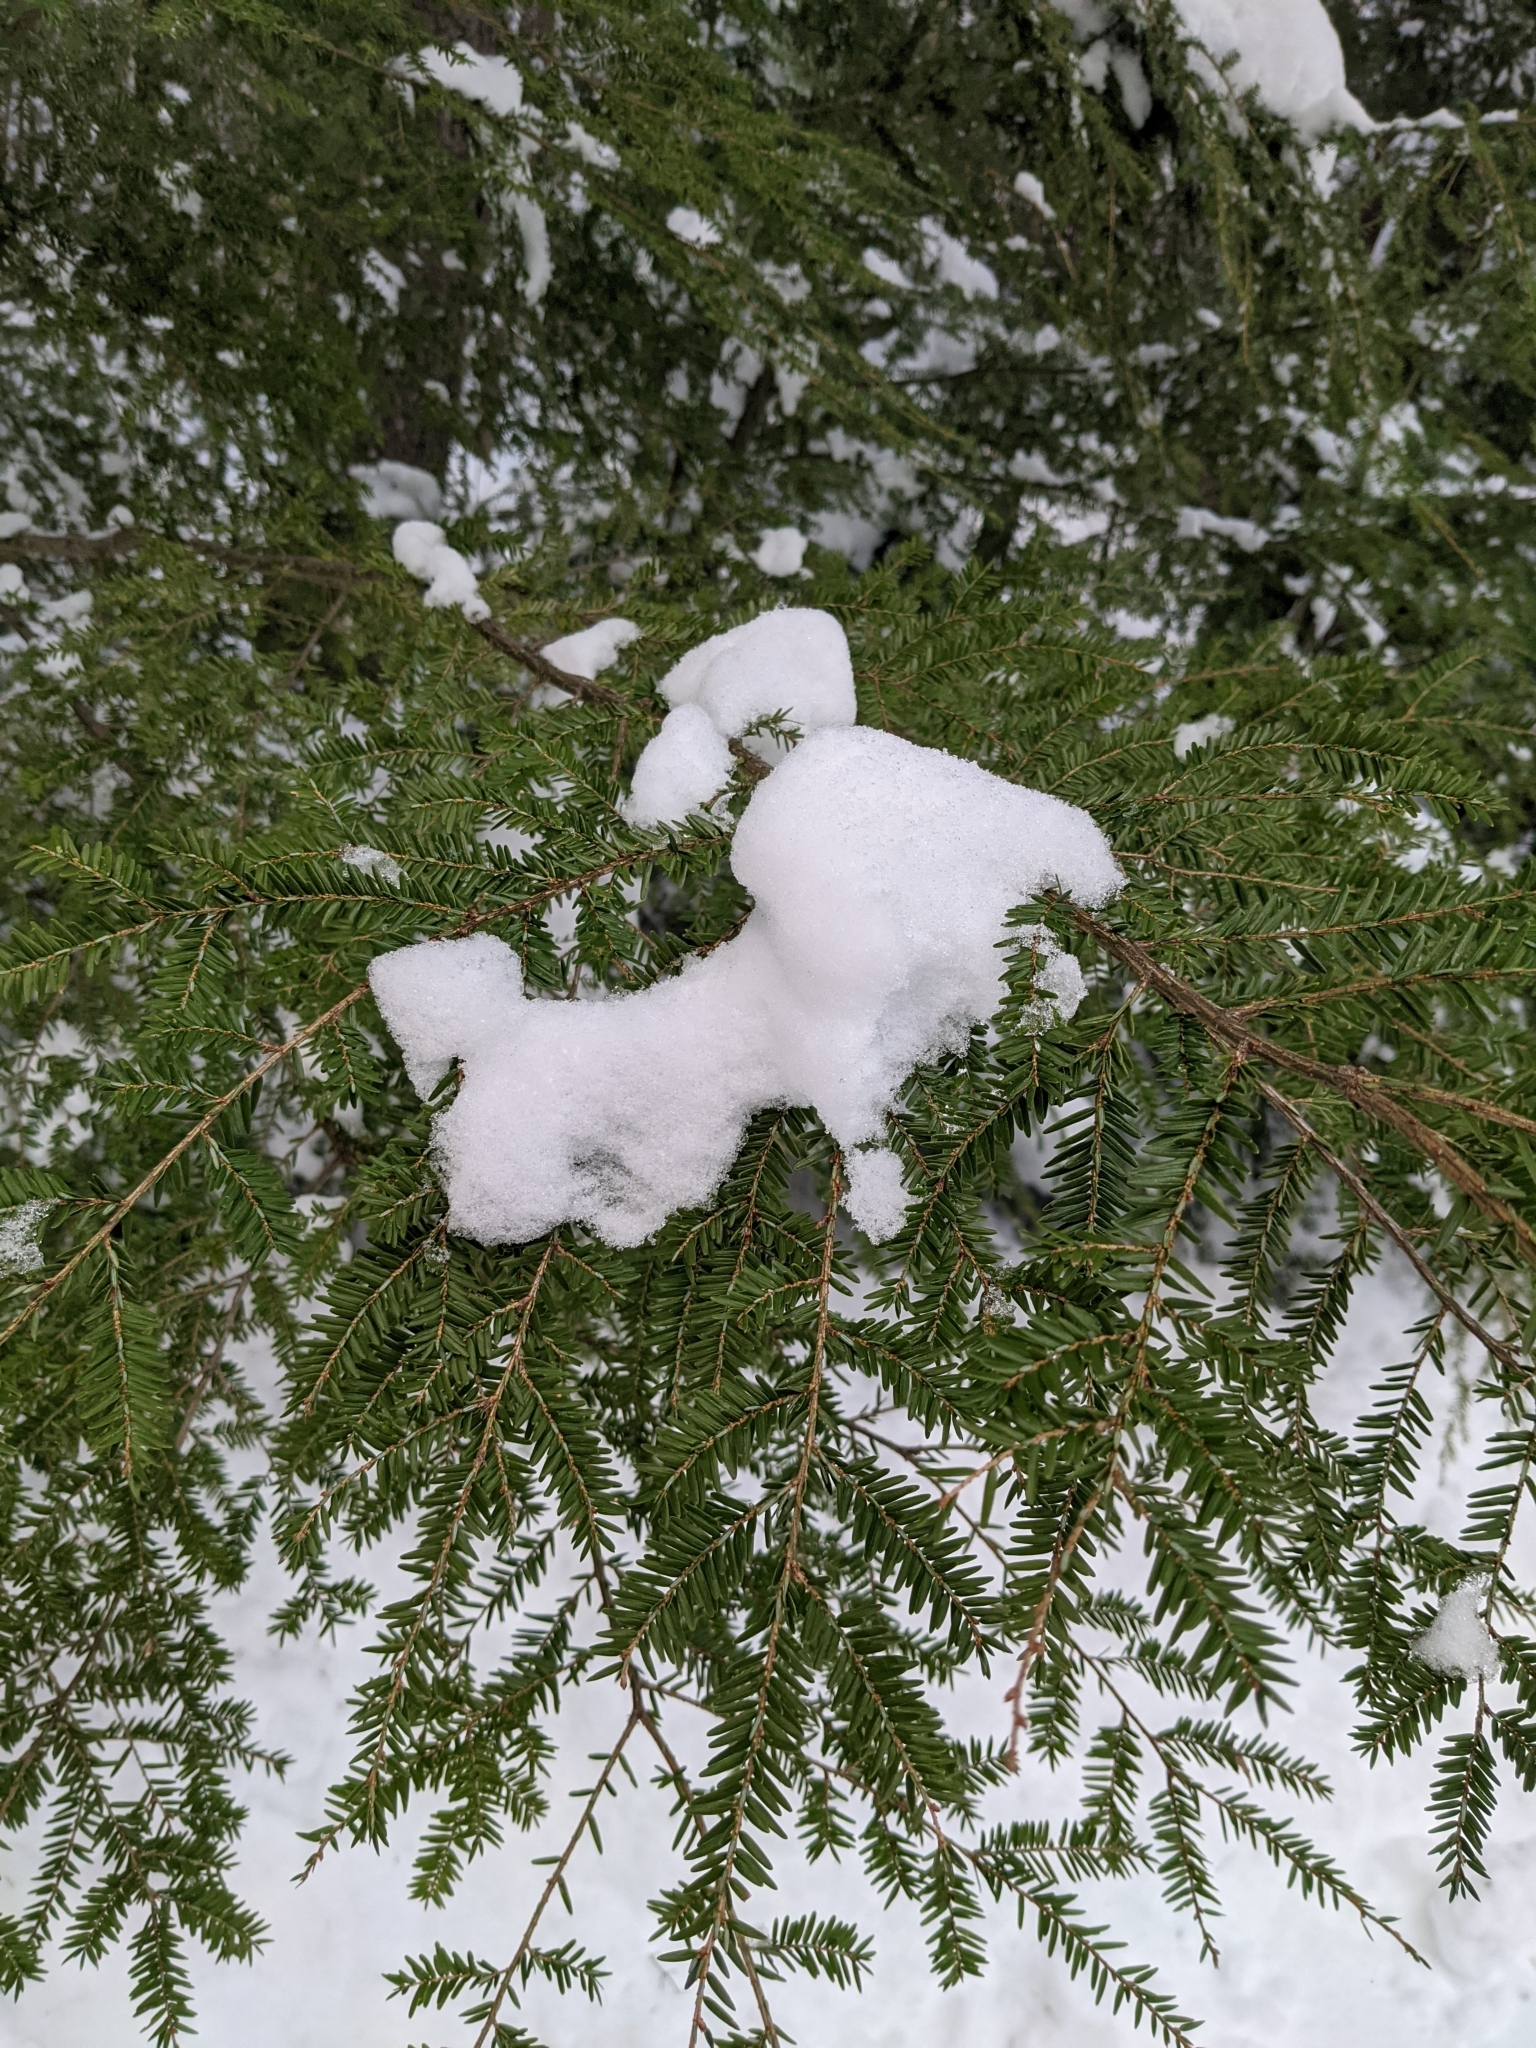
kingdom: Plantae
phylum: Tracheophyta
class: Pinopsida
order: Pinales
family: Pinaceae
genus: Tsuga
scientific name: Tsuga canadensis
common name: Eastern hemlock
